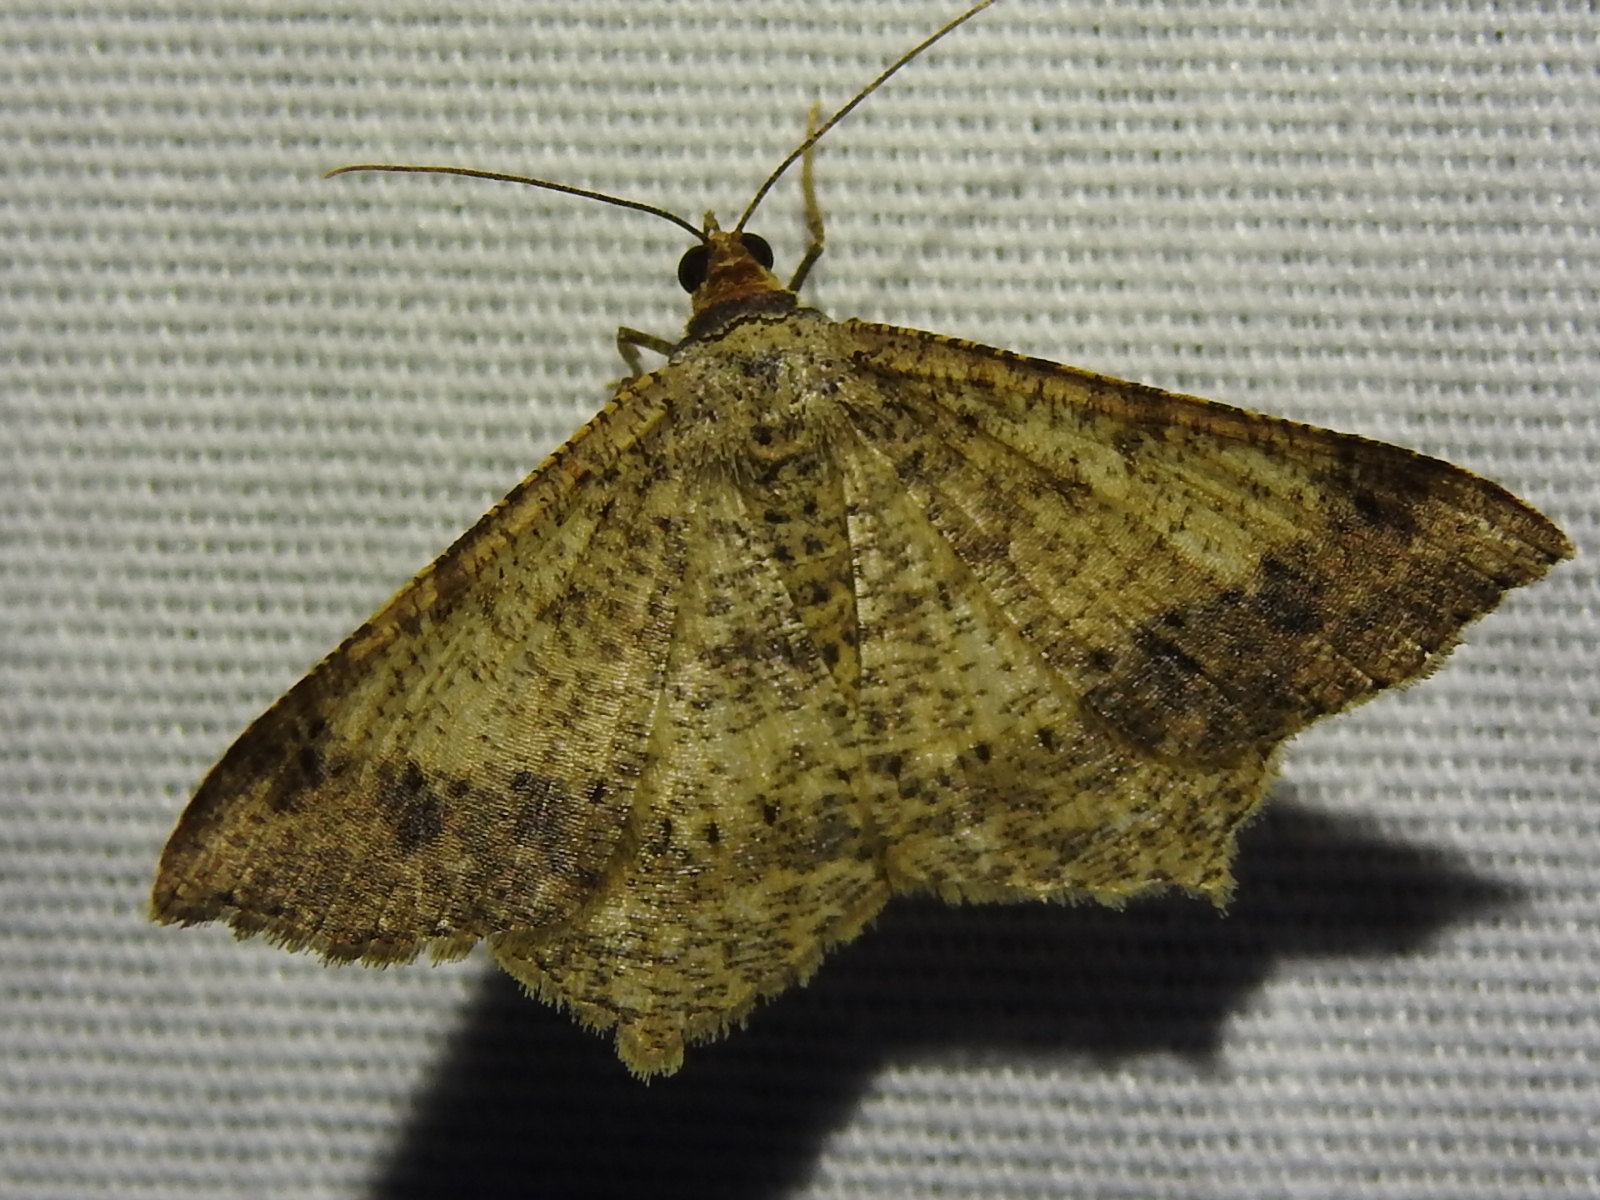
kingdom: Animalia
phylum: Arthropoda
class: Insecta
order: Lepidoptera
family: Geometridae
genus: Macaria
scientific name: Macaria abydata
